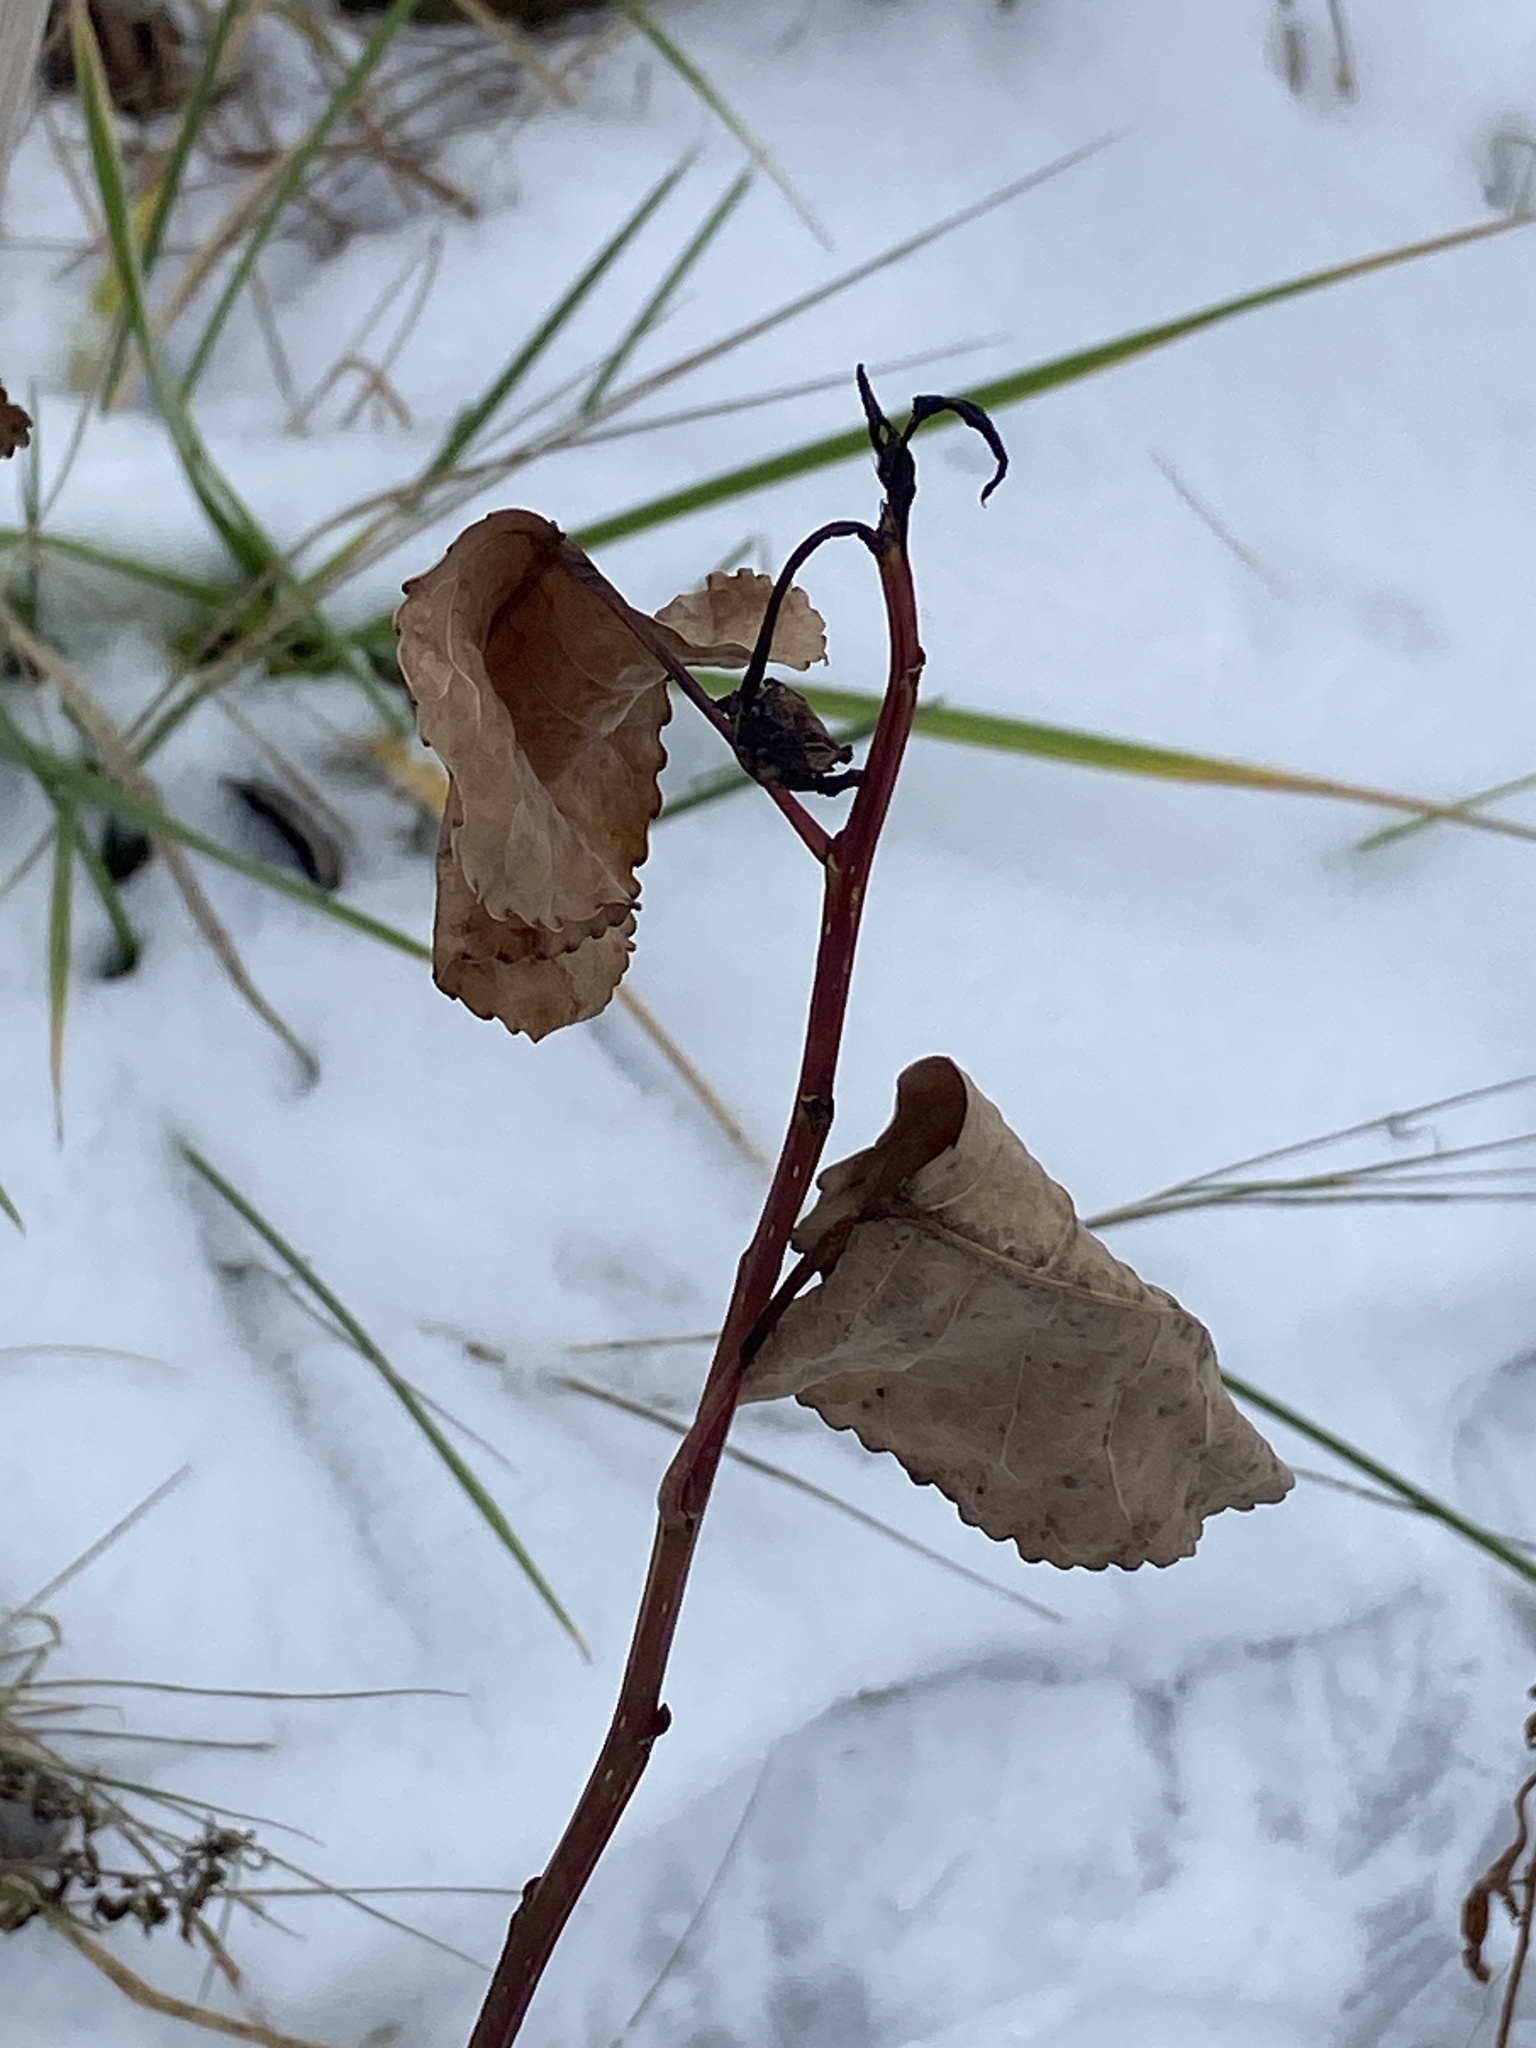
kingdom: Plantae
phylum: Tracheophyta
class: Magnoliopsida
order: Malpighiales
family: Salicaceae
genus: Populus
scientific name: Populus deltoides
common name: Eastern cottonwood
